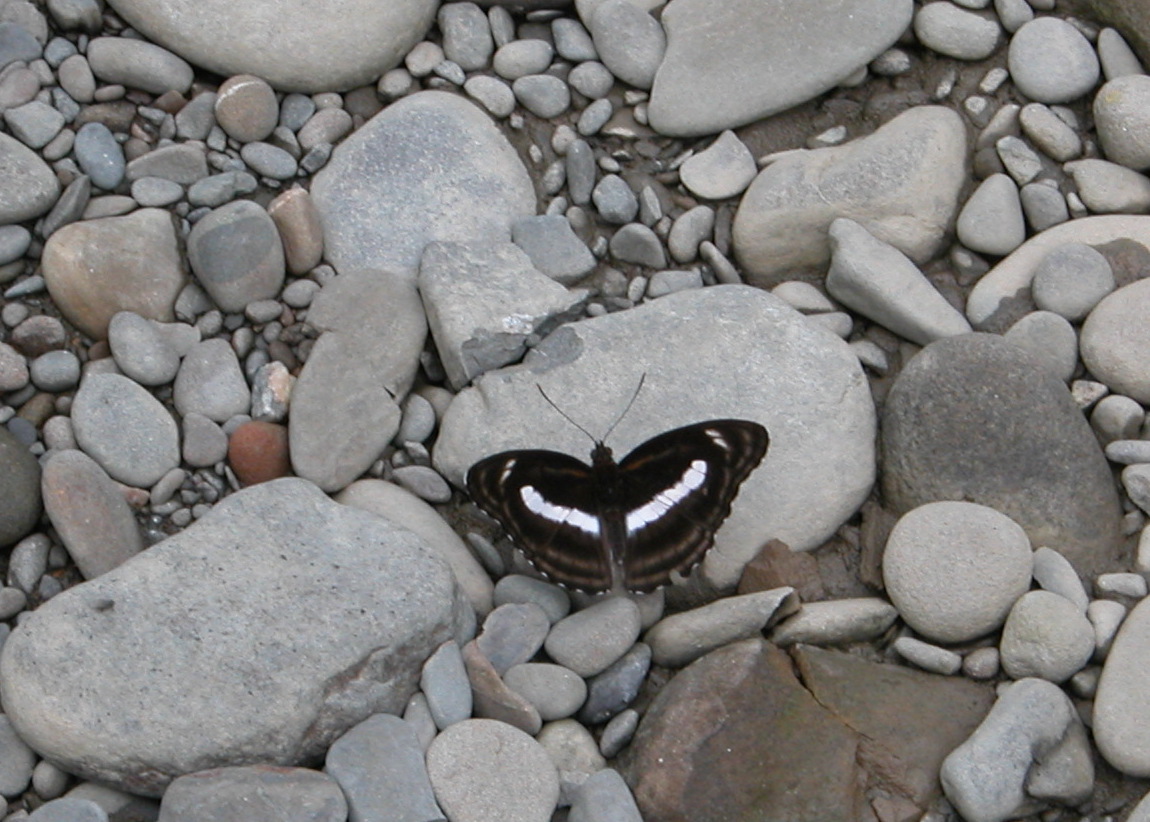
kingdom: Animalia
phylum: Arthropoda
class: Insecta
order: Lepidoptera
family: Nymphalidae
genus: Pantoporia
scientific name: Pantoporia zeroca
